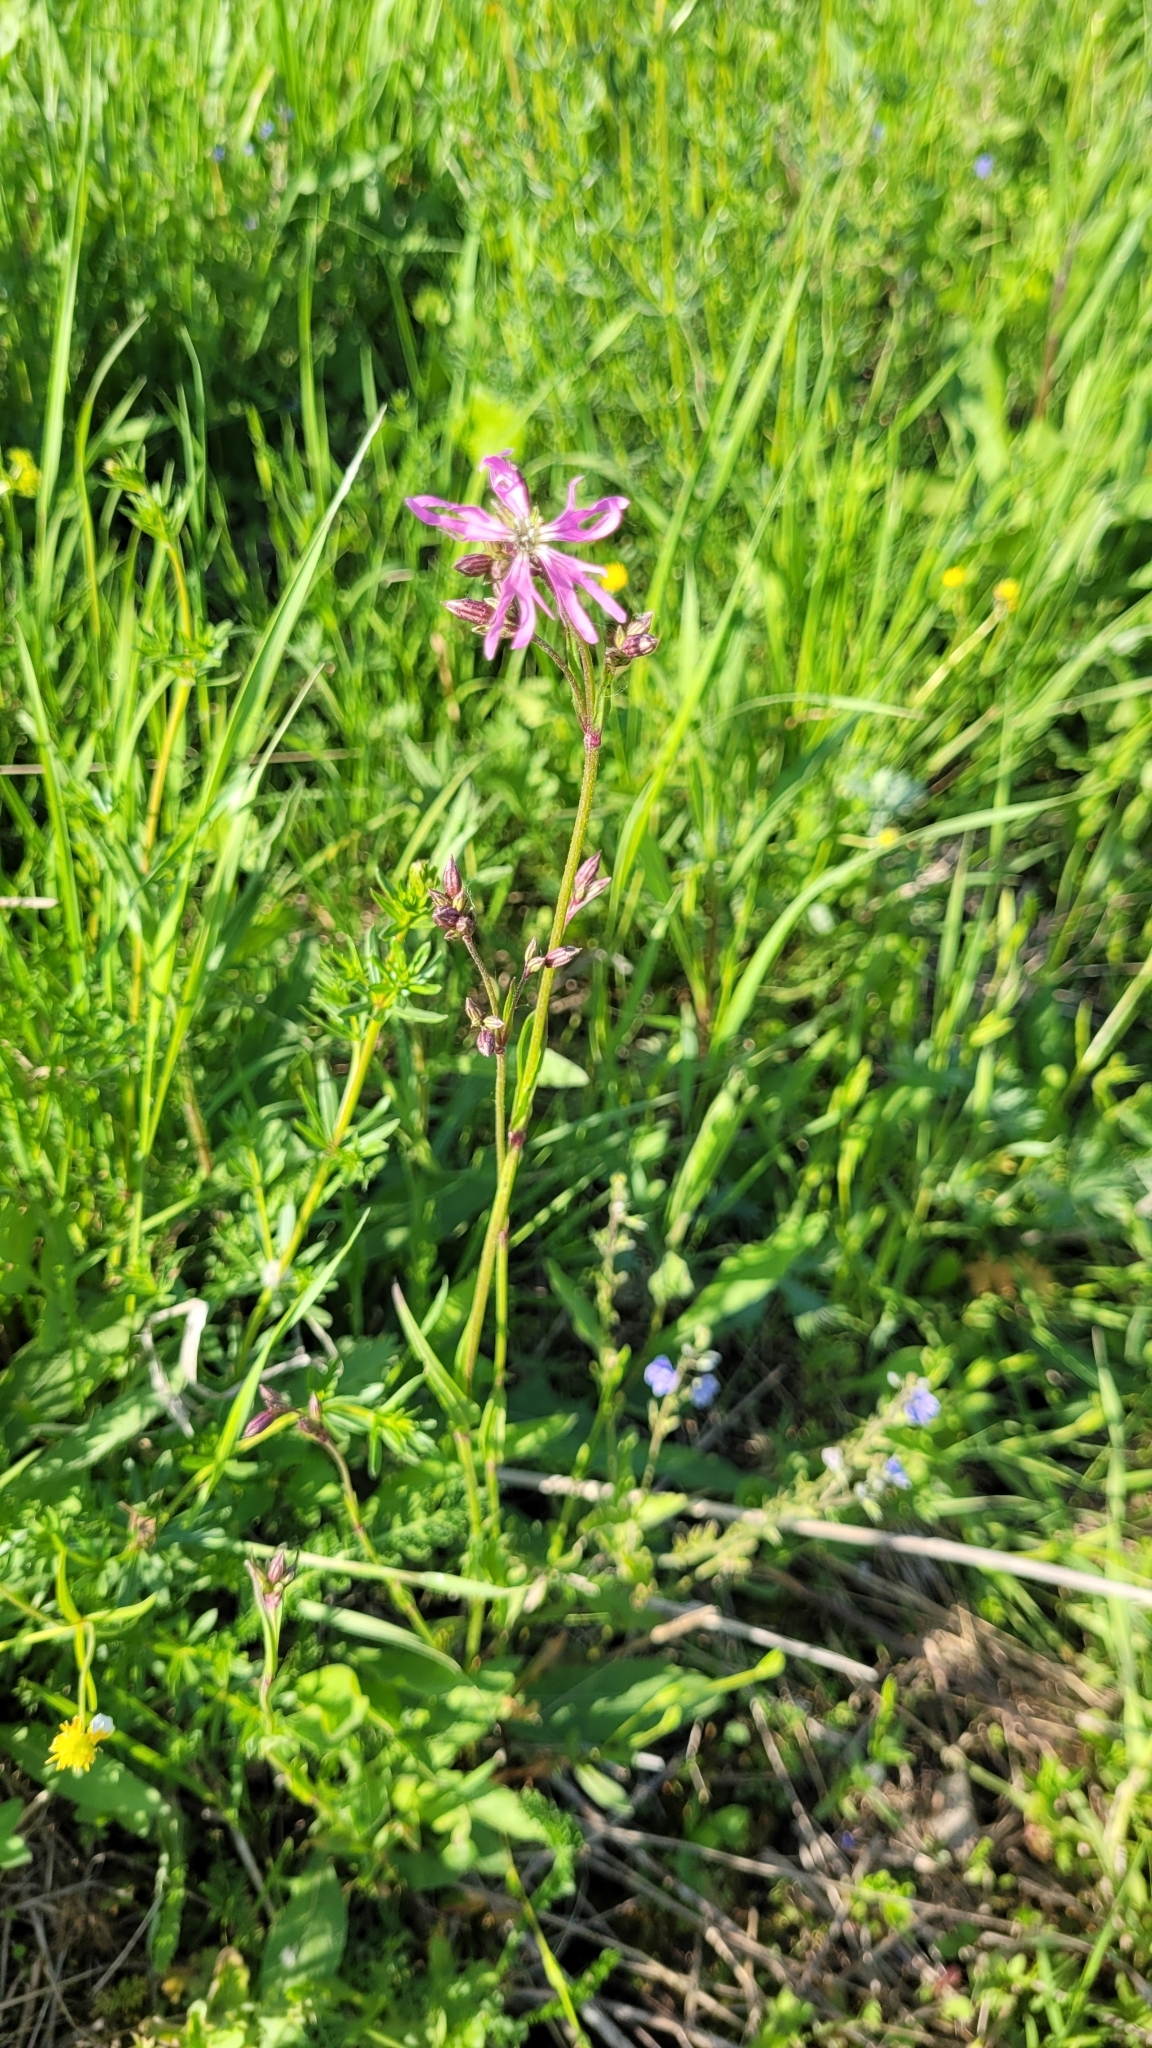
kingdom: Plantae
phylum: Tracheophyta
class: Magnoliopsida
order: Caryophyllales
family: Caryophyllaceae
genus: Silene
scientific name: Silene flos-cuculi
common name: Ragged-robin
